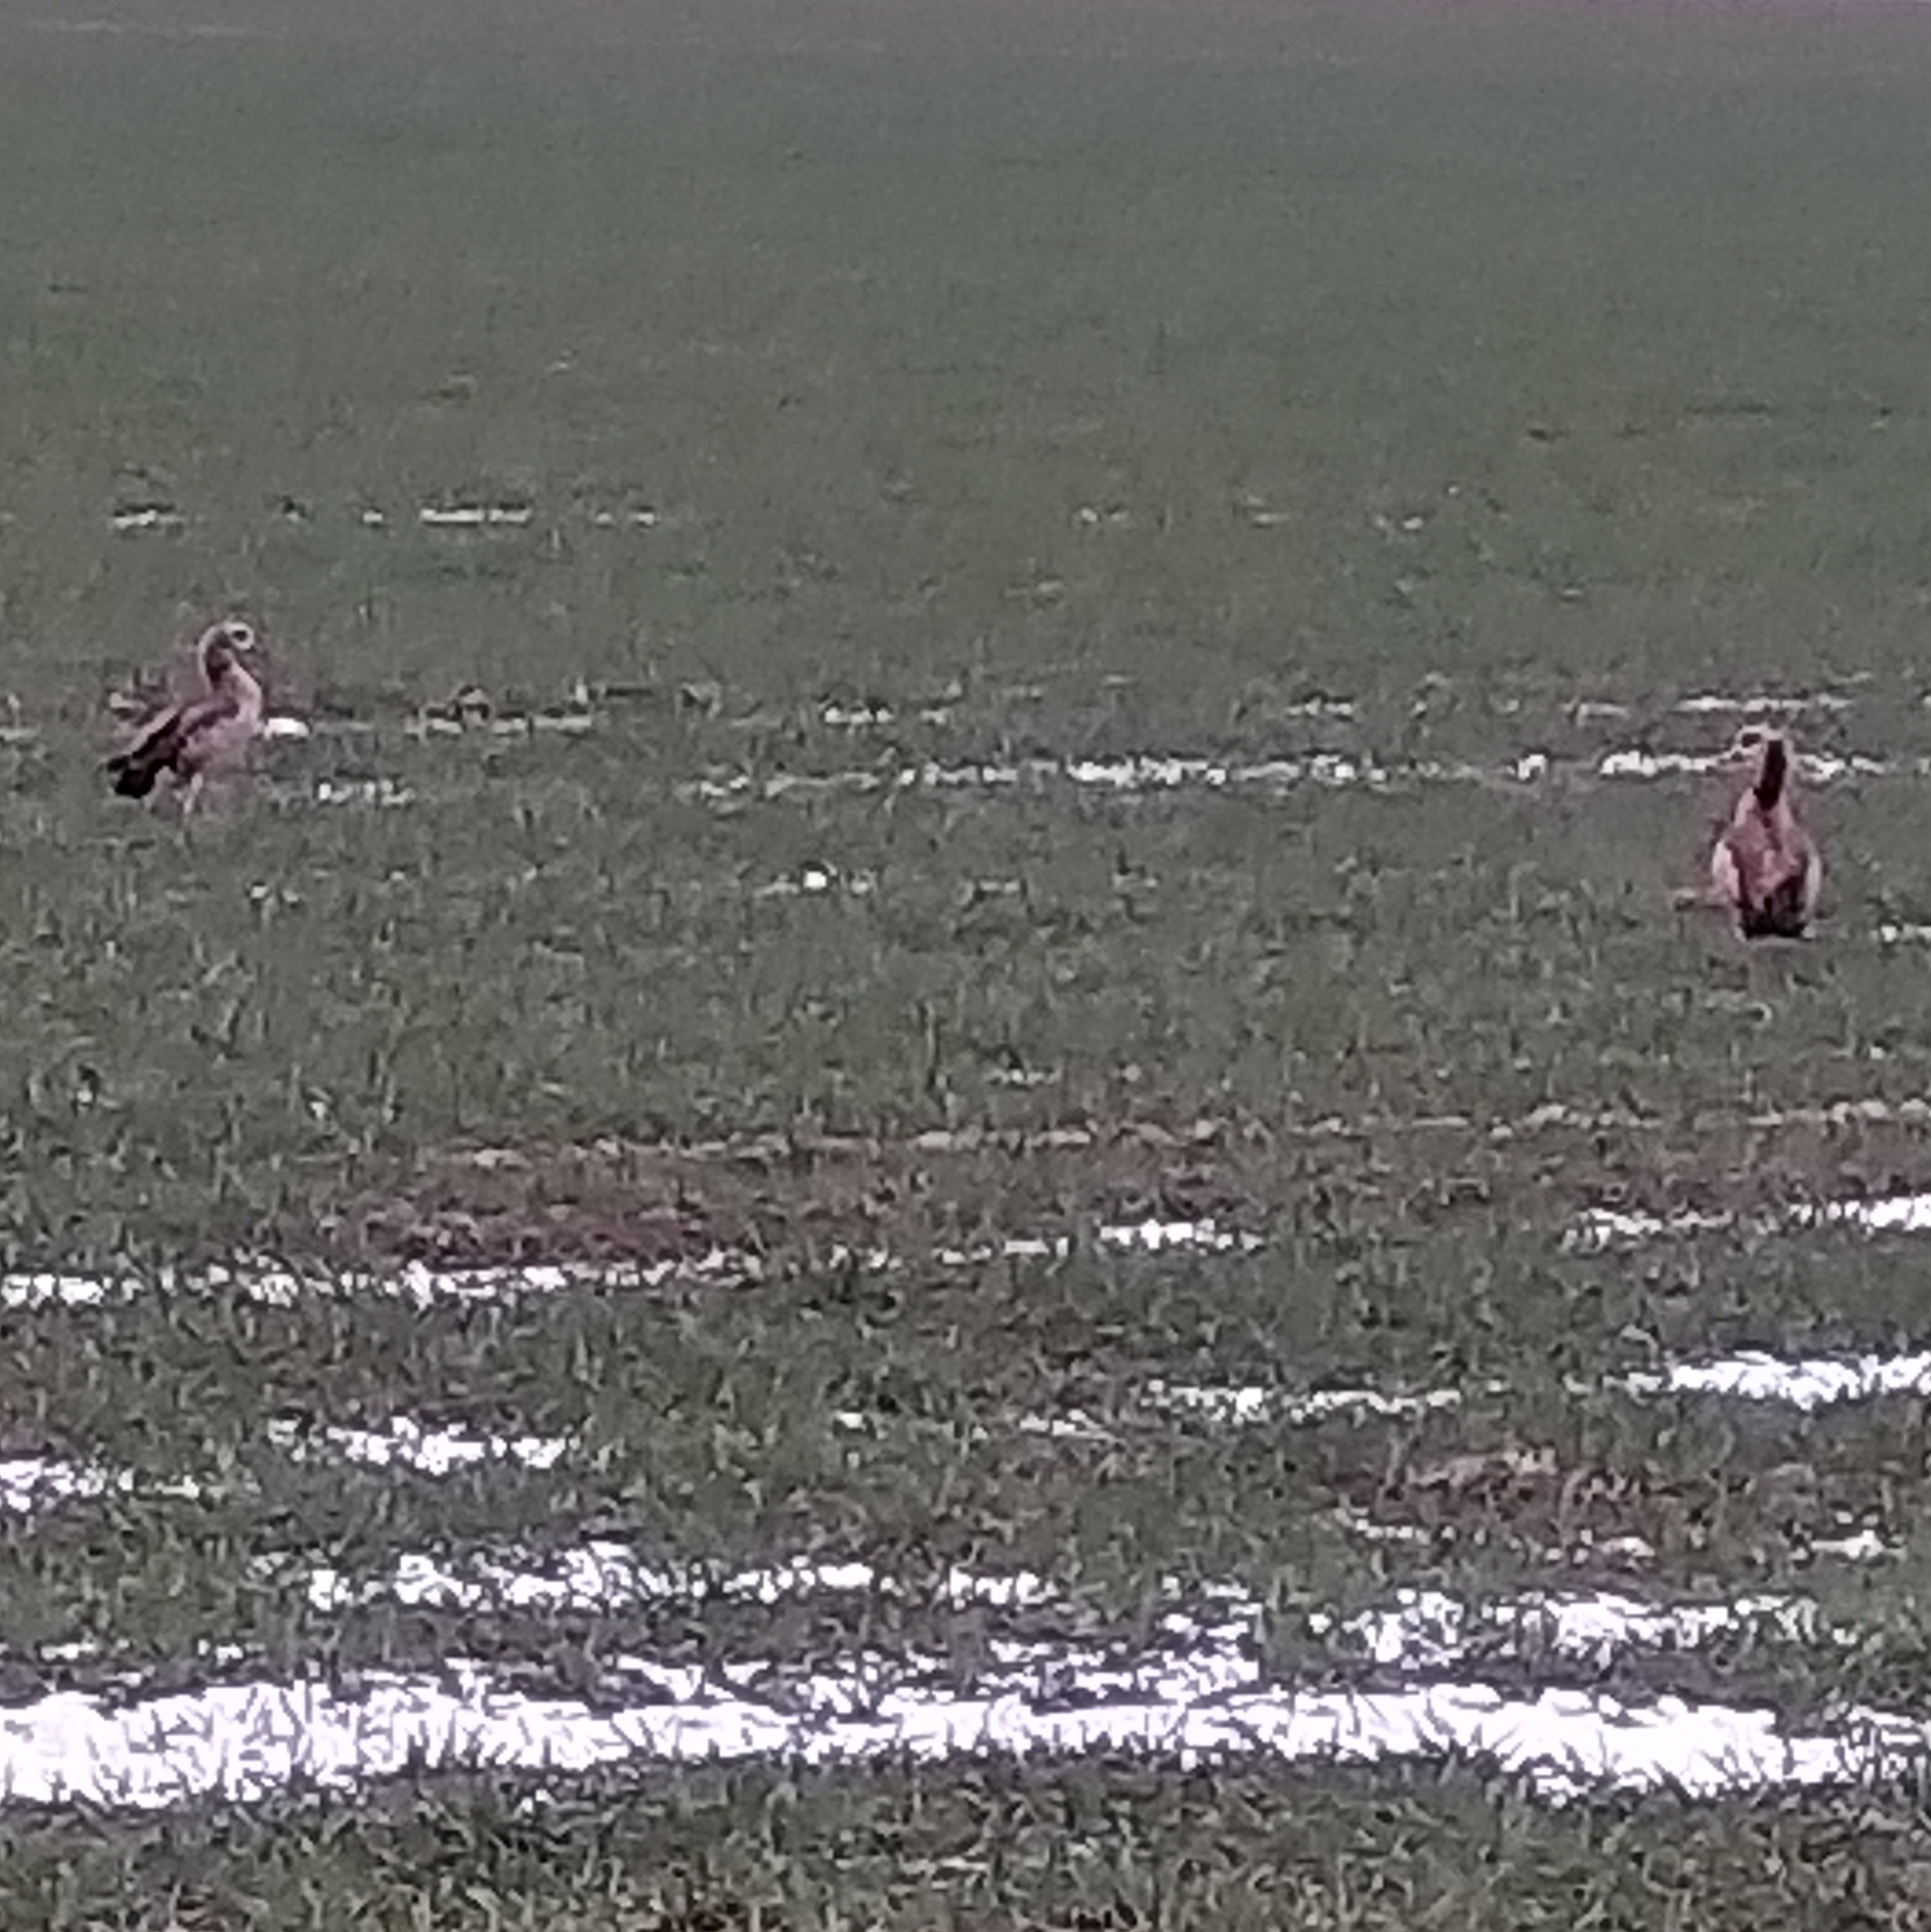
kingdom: Animalia
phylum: Chordata
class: Aves
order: Anseriformes
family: Anatidae
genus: Alopochen
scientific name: Alopochen aegyptiaca
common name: Egyptian goose
